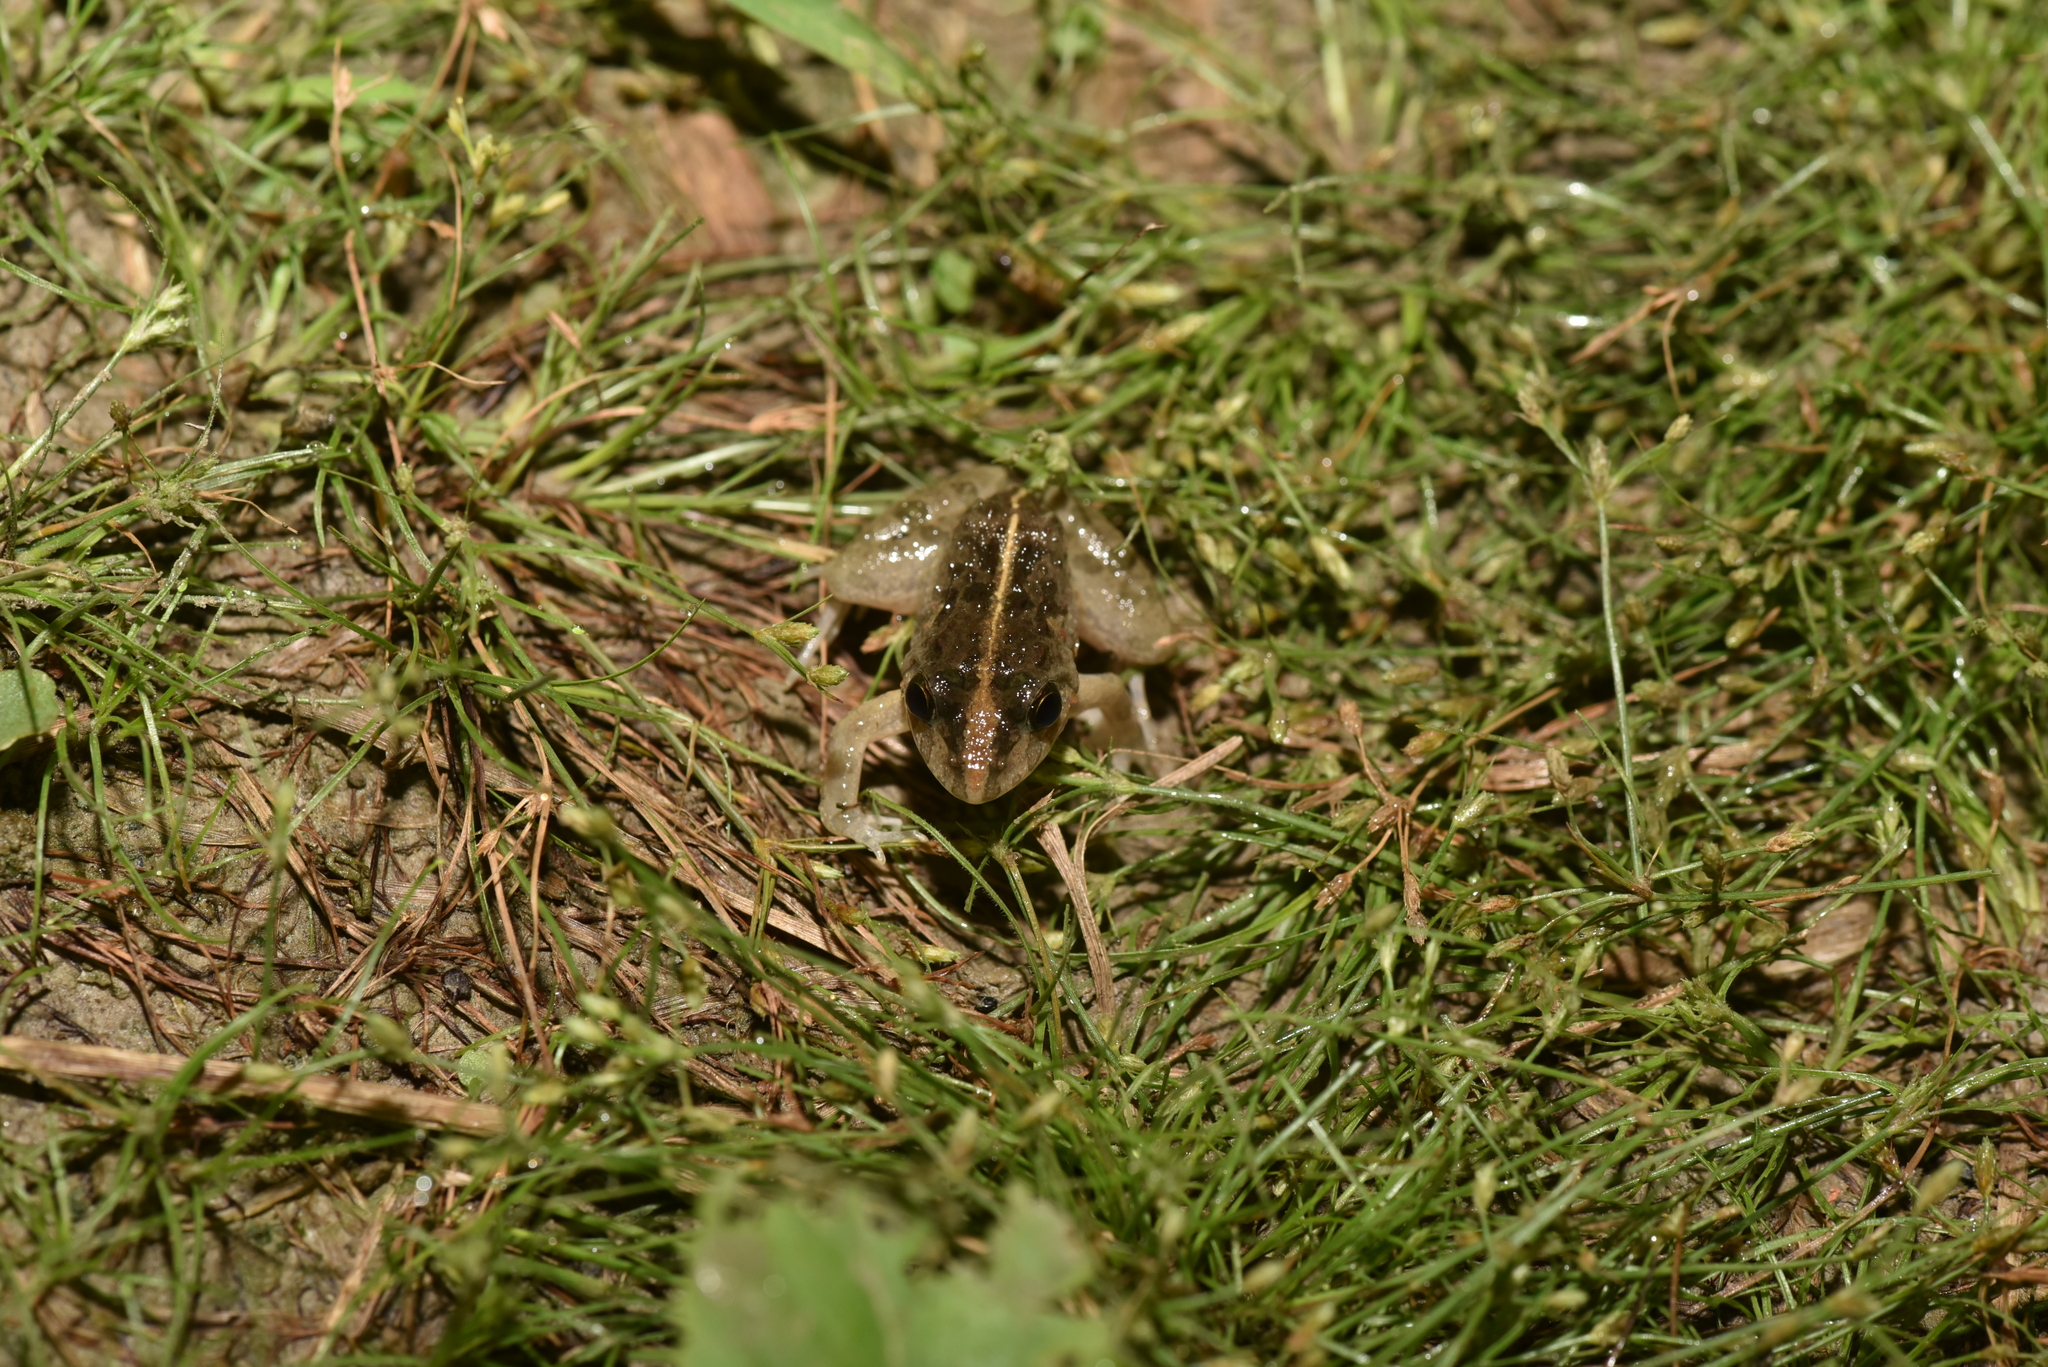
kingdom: Animalia
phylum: Chordata
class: Amphibia
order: Anura
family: Dicroglossidae
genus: Fejervarya
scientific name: Fejervarya limnocharis
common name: Asian grass frog/common pond frog/field frog/grass frog/indian rice frog
